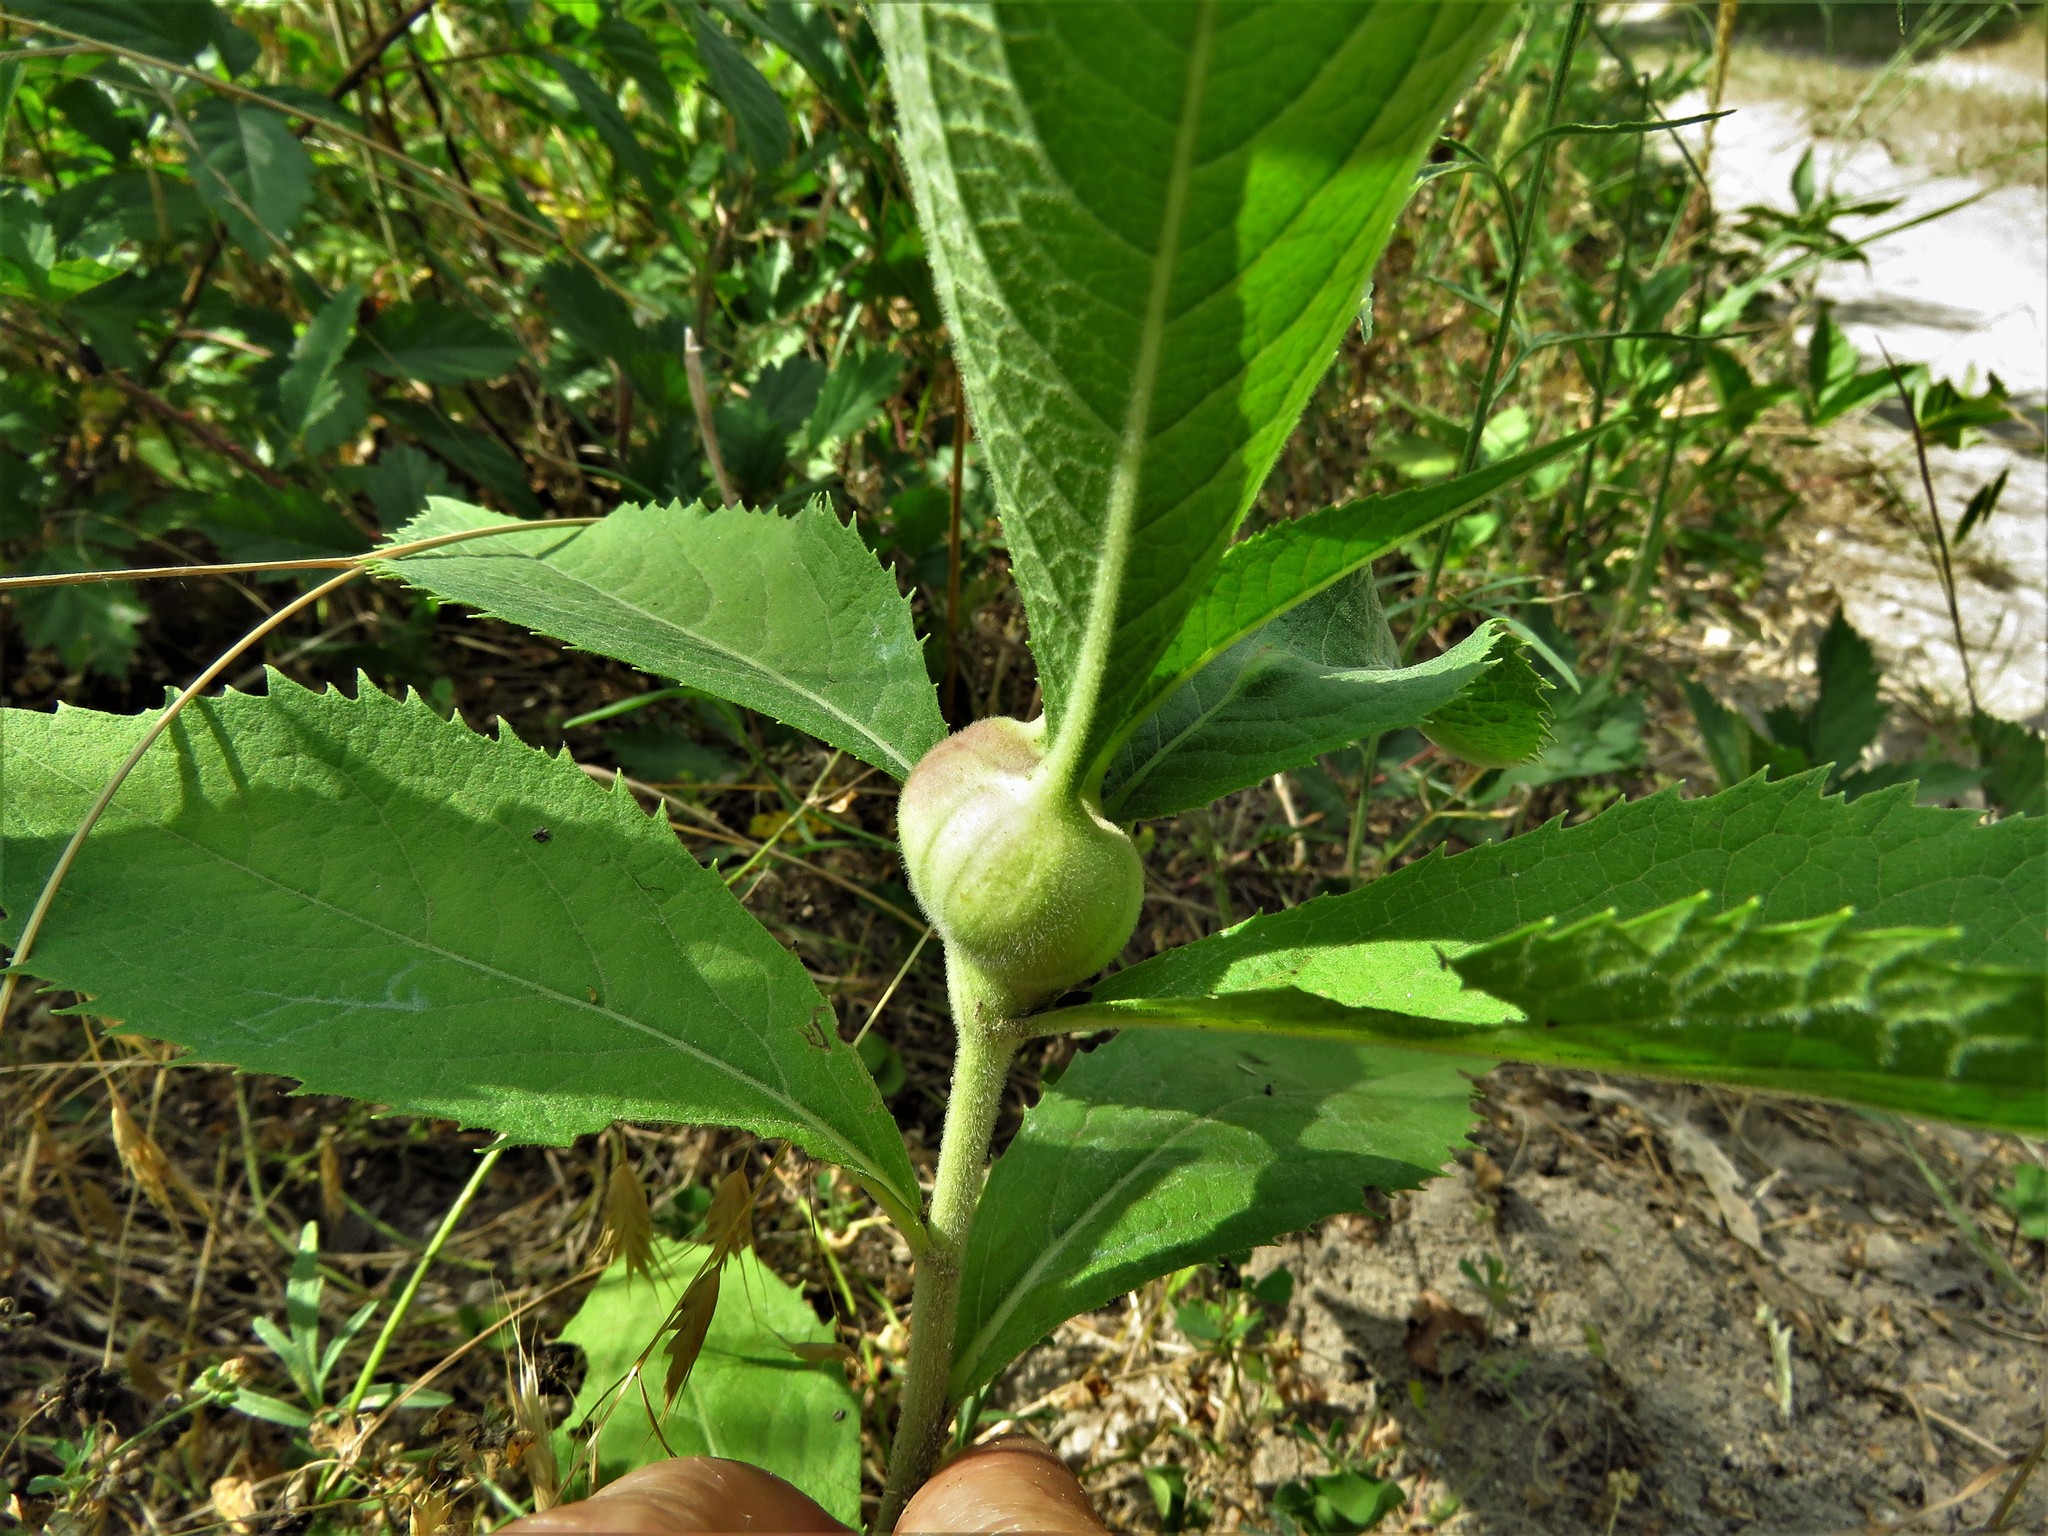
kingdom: Animalia
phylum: Arthropoda
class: Insecta
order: Diptera
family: Cecidomyiidae
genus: Neolasioptera
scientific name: Neolasioptera vernoniae
